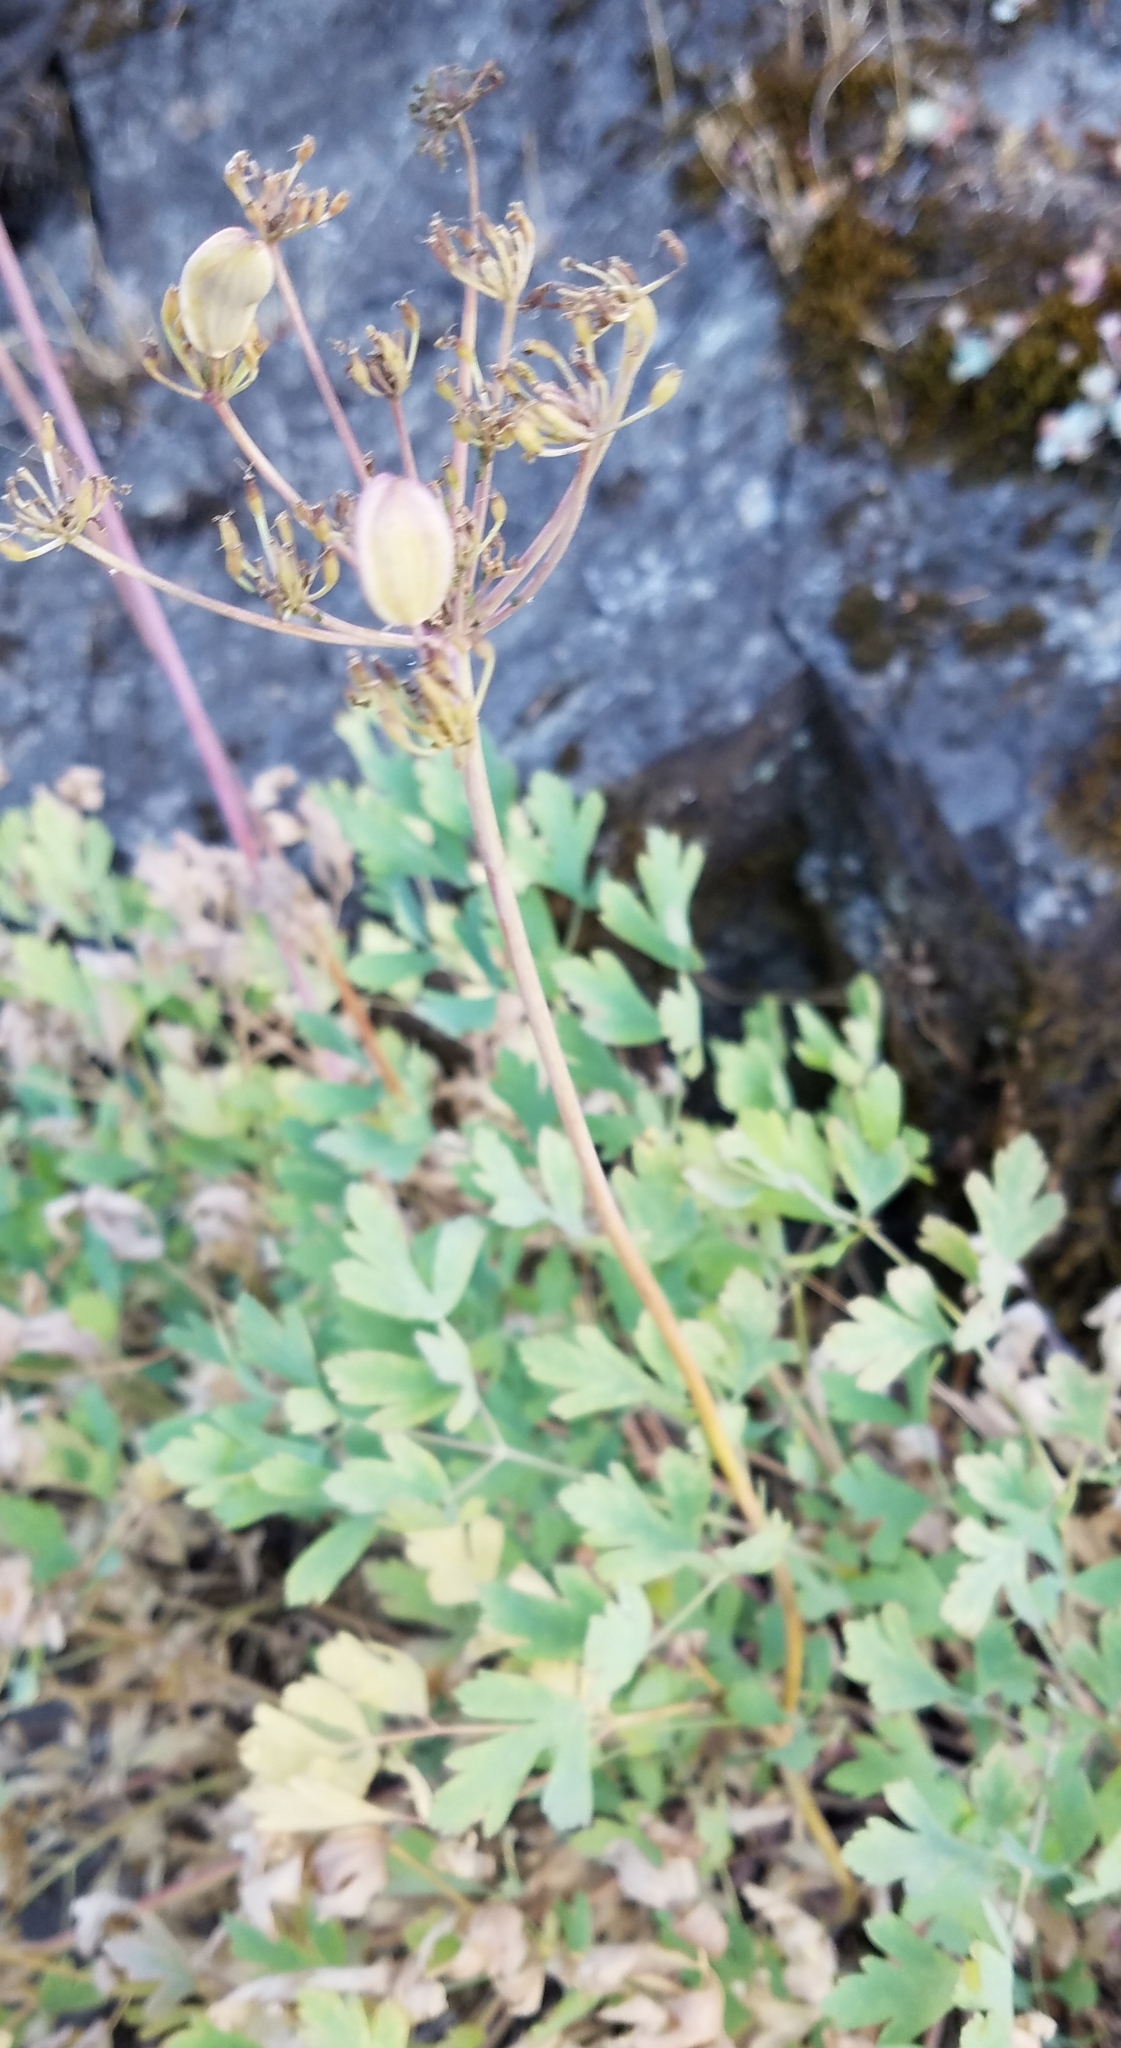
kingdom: Plantae
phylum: Tracheophyta
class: Magnoliopsida
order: Apiales
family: Apiaceae
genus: Lomatium
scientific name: Lomatium californicum
